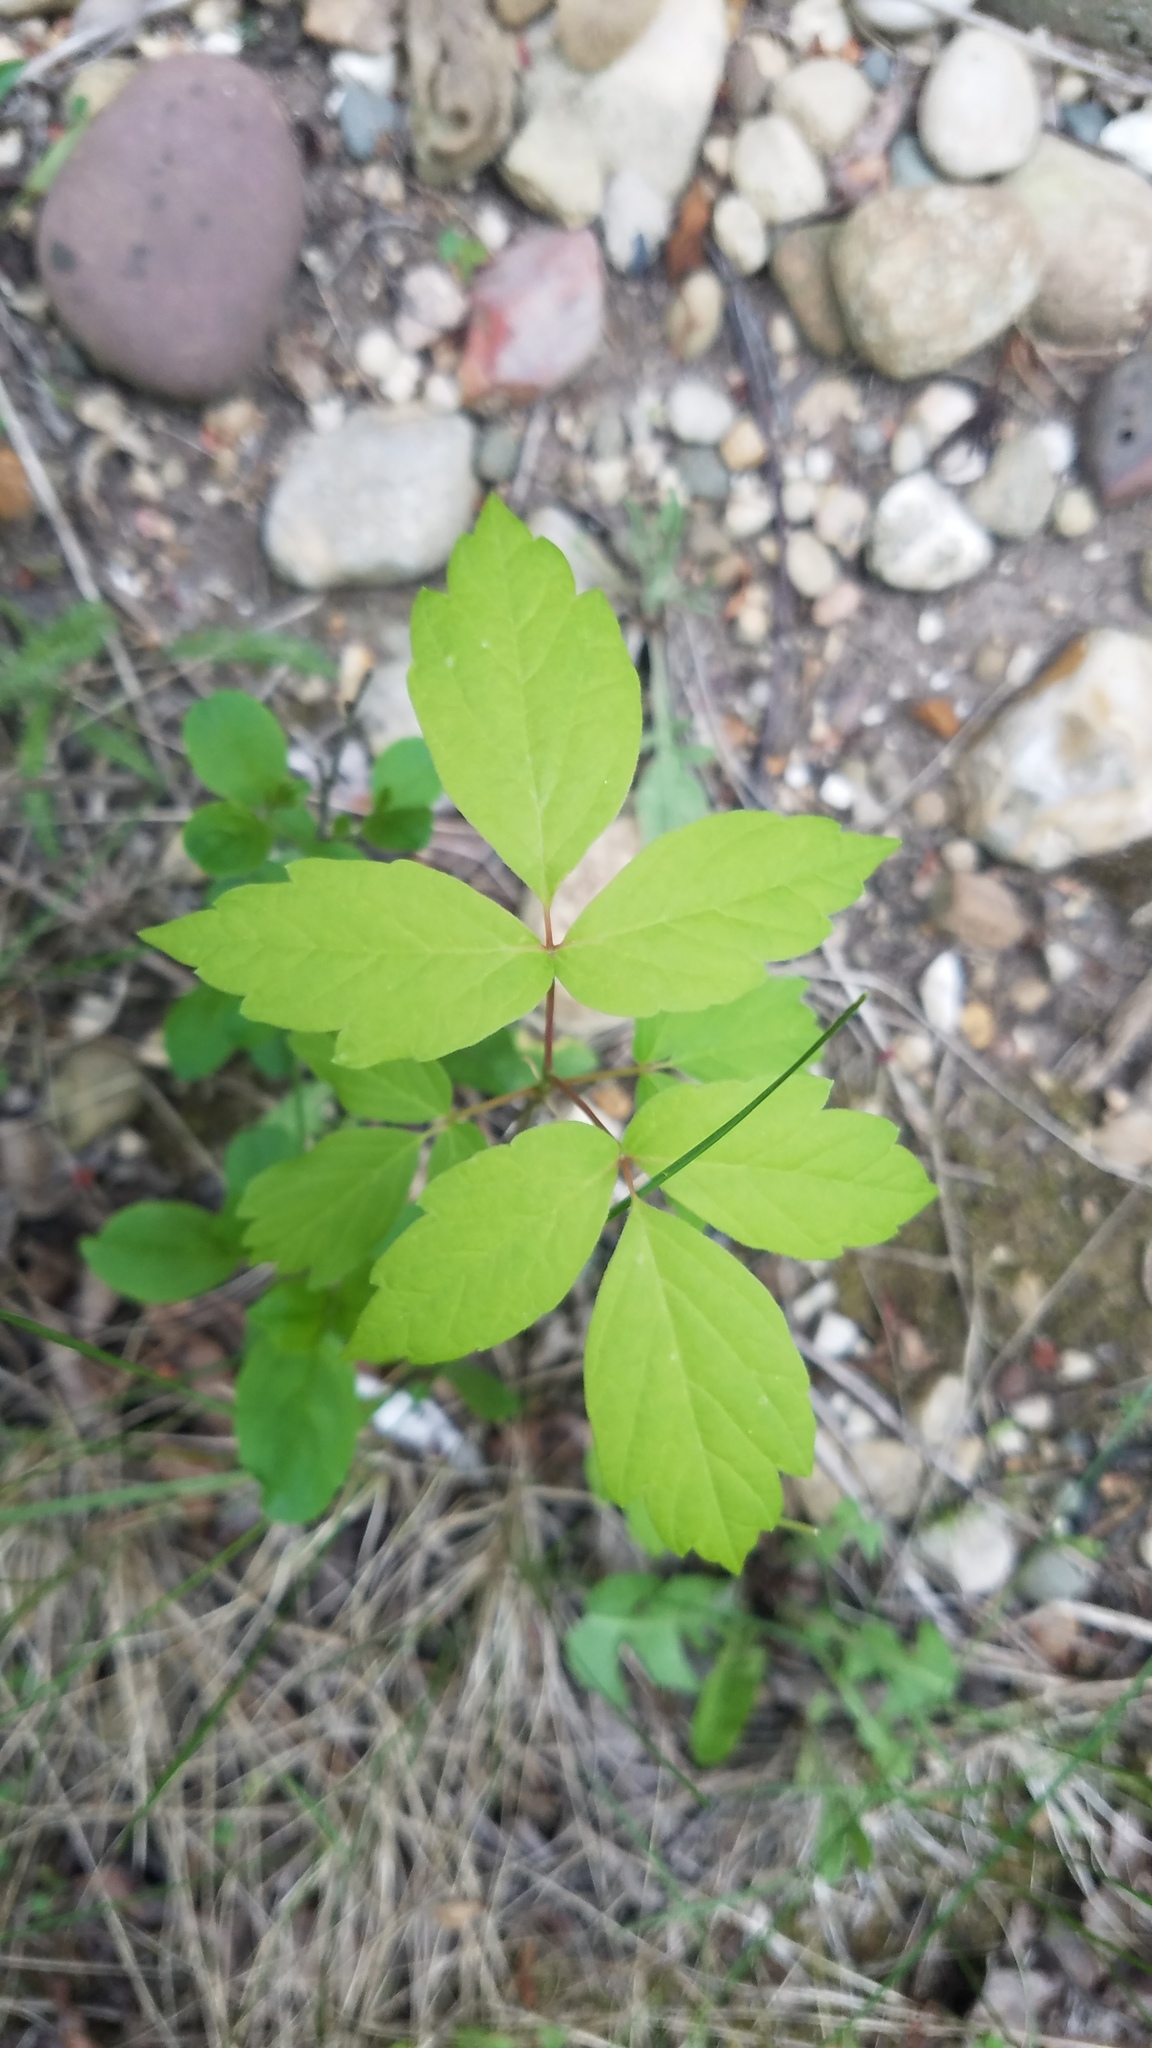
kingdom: Plantae
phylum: Tracheophyta
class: Magnoliopsida
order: Sapindales
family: Sapindaceae
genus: Acer
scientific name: Acer negundo
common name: Ashleaf maple
